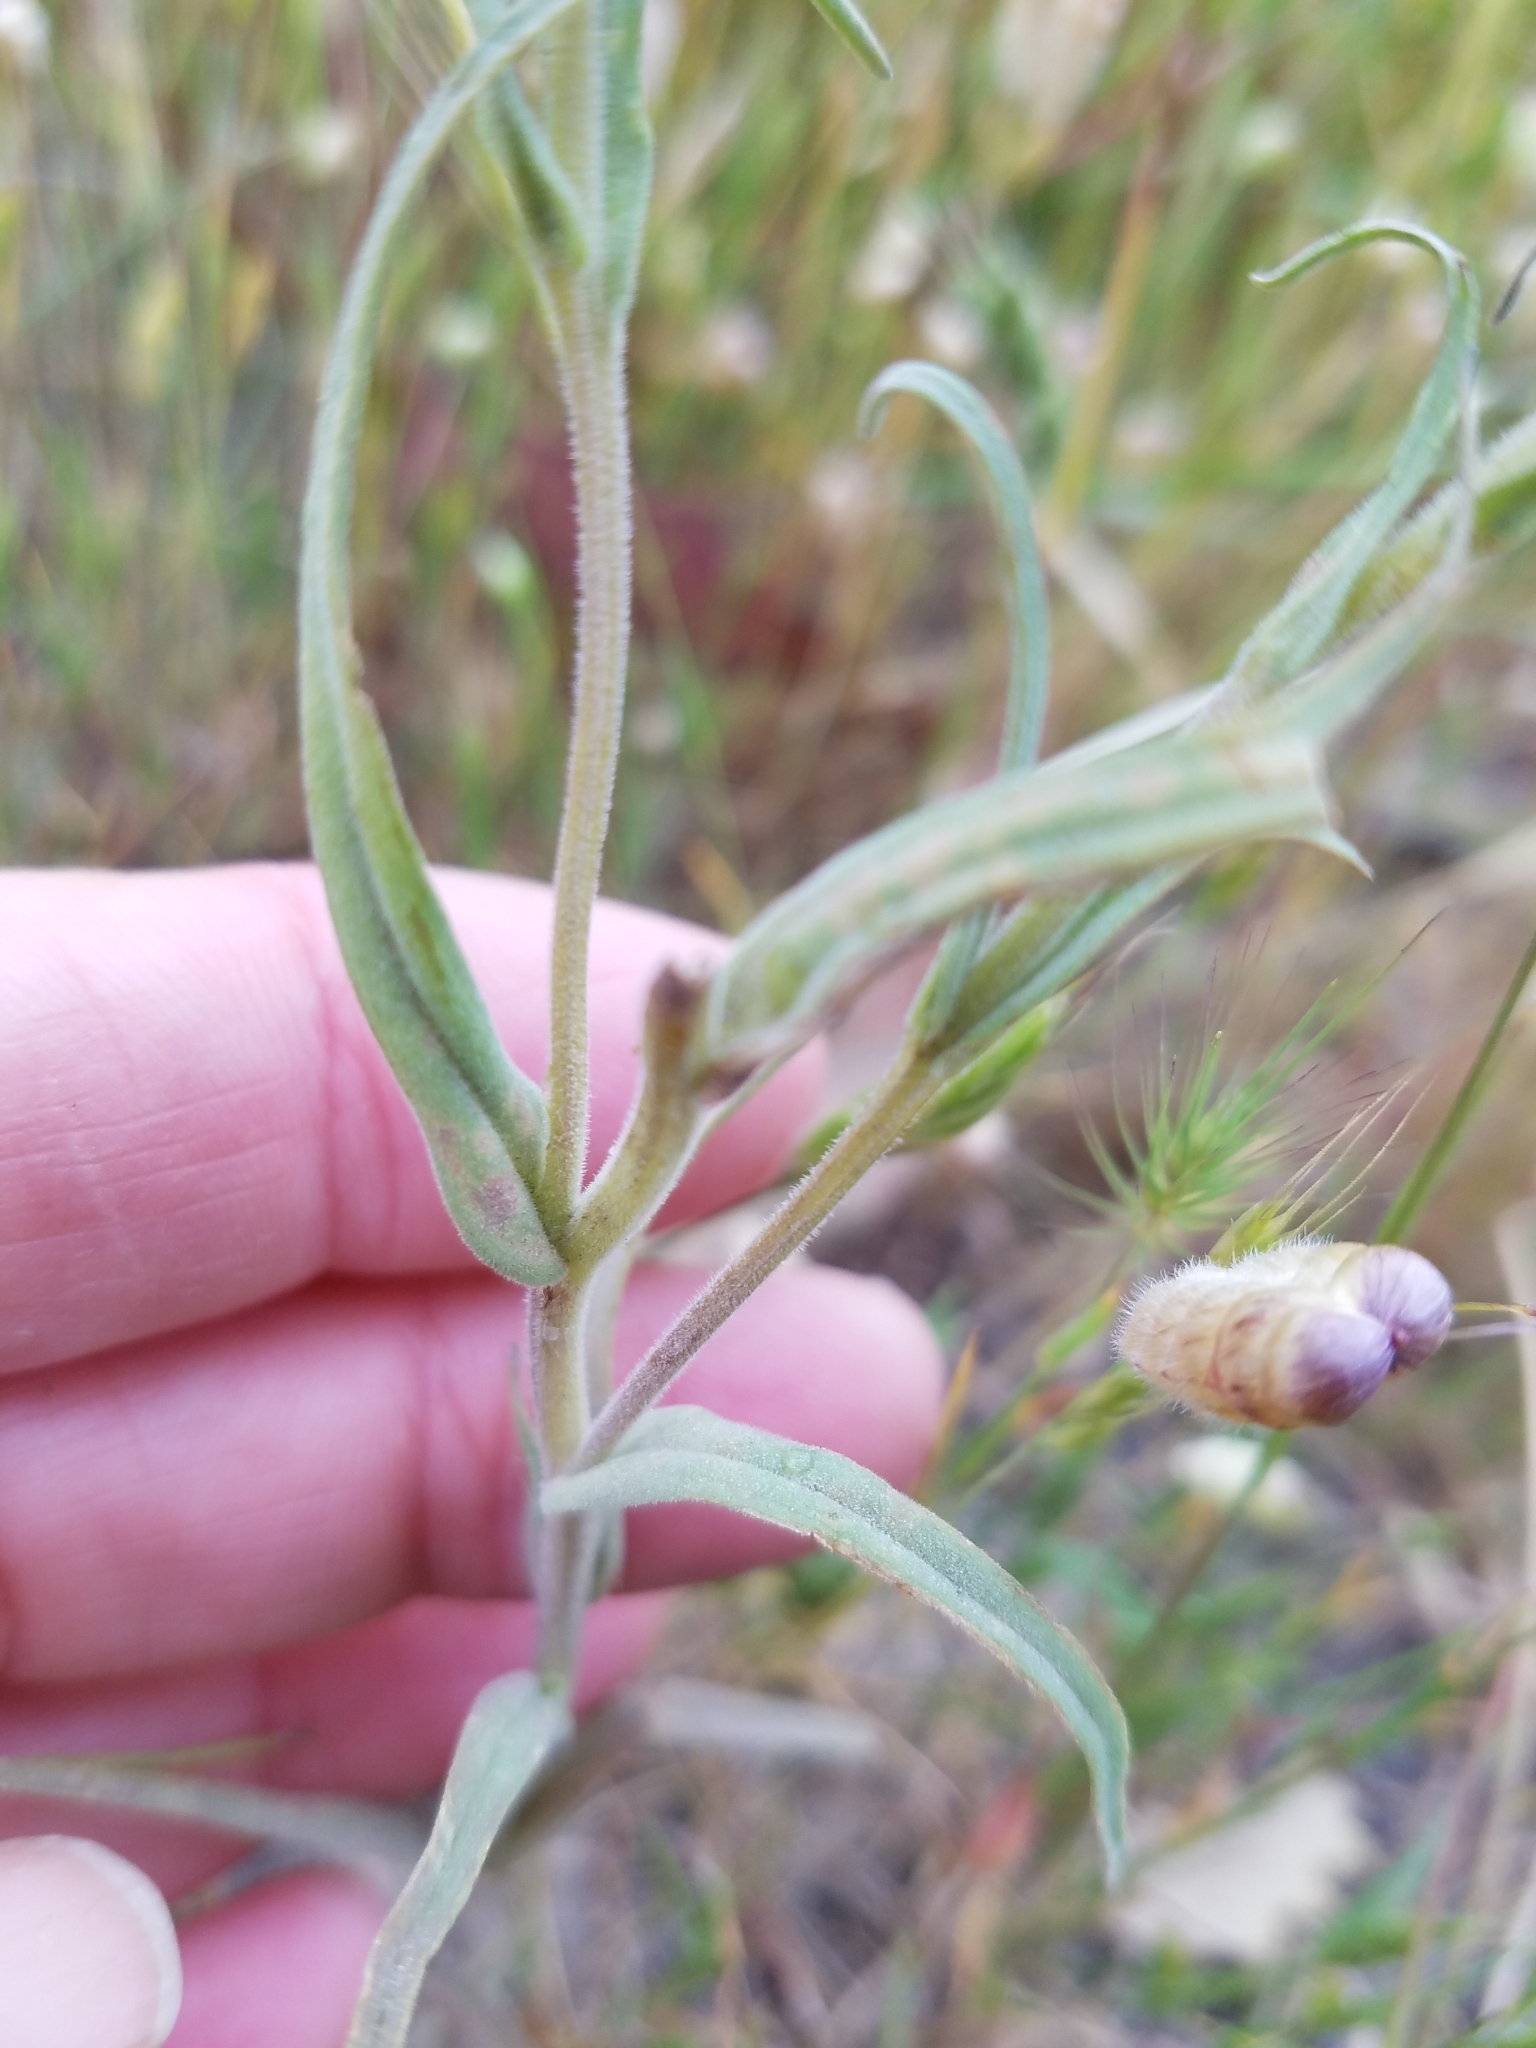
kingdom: Plantae
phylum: Tracheophyta
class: Magnoliopsida
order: Lamiales
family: Orobanchaceae
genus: Castilleja
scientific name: Castilleja densiflora
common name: Dense-flower indian paintbrush
